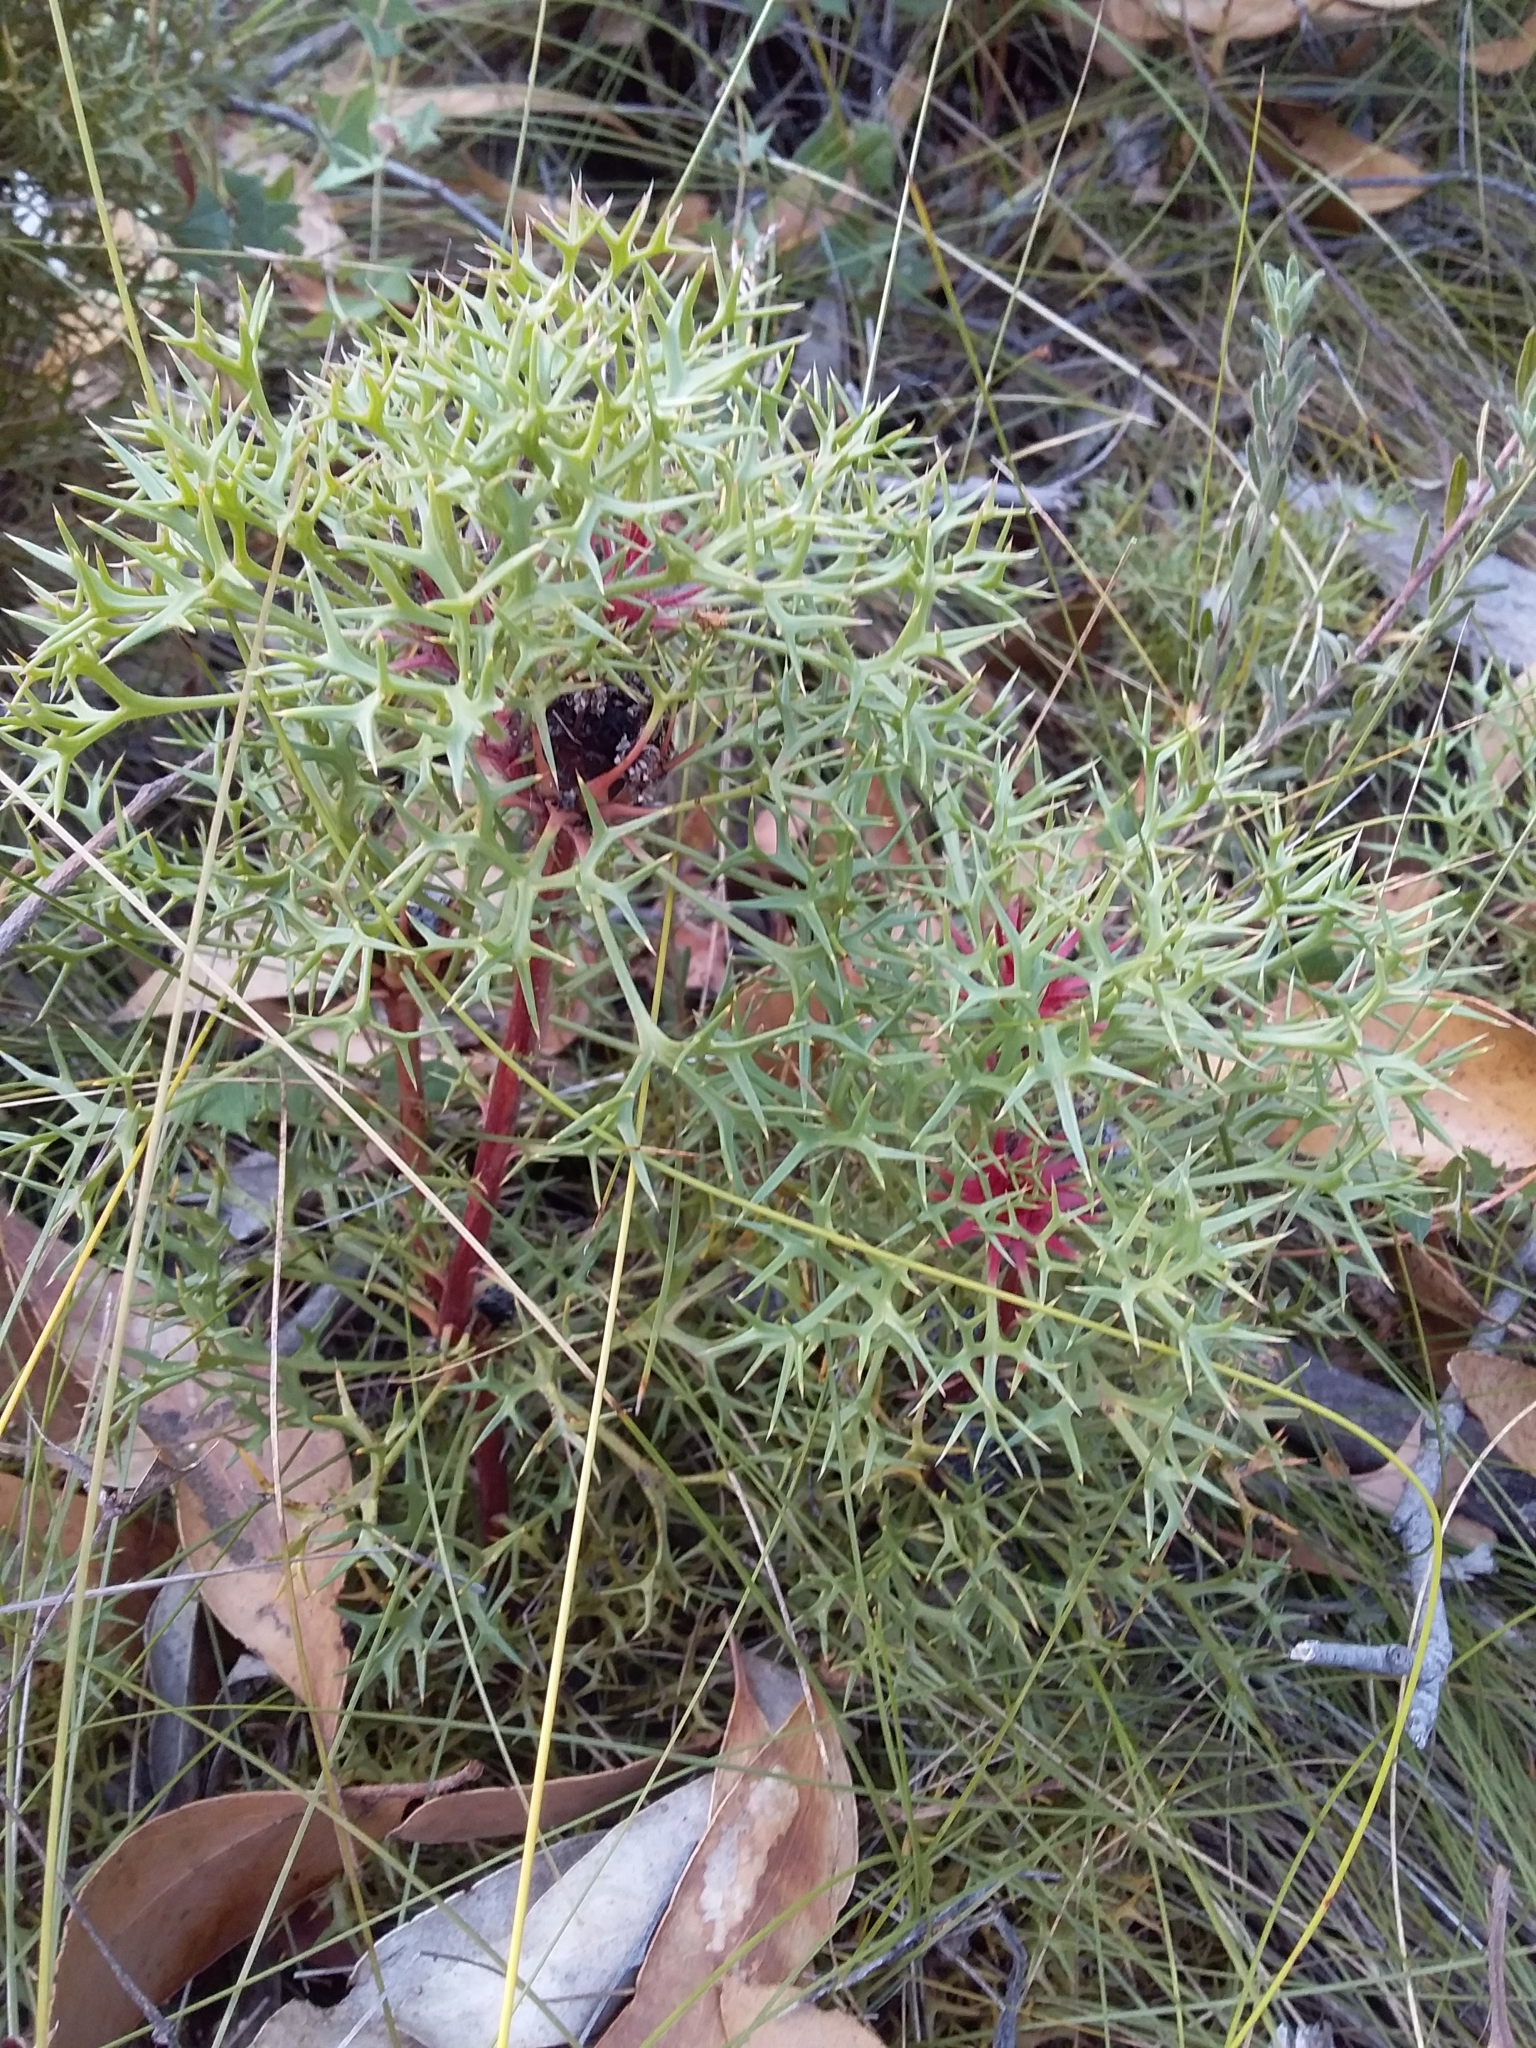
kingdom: Plantae
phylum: Tracheophyta
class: Magnoliopsida
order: Proteales
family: Proteaceae
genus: Isopogon
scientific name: Isopogon ceratophyllus
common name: Horny cone-bush
